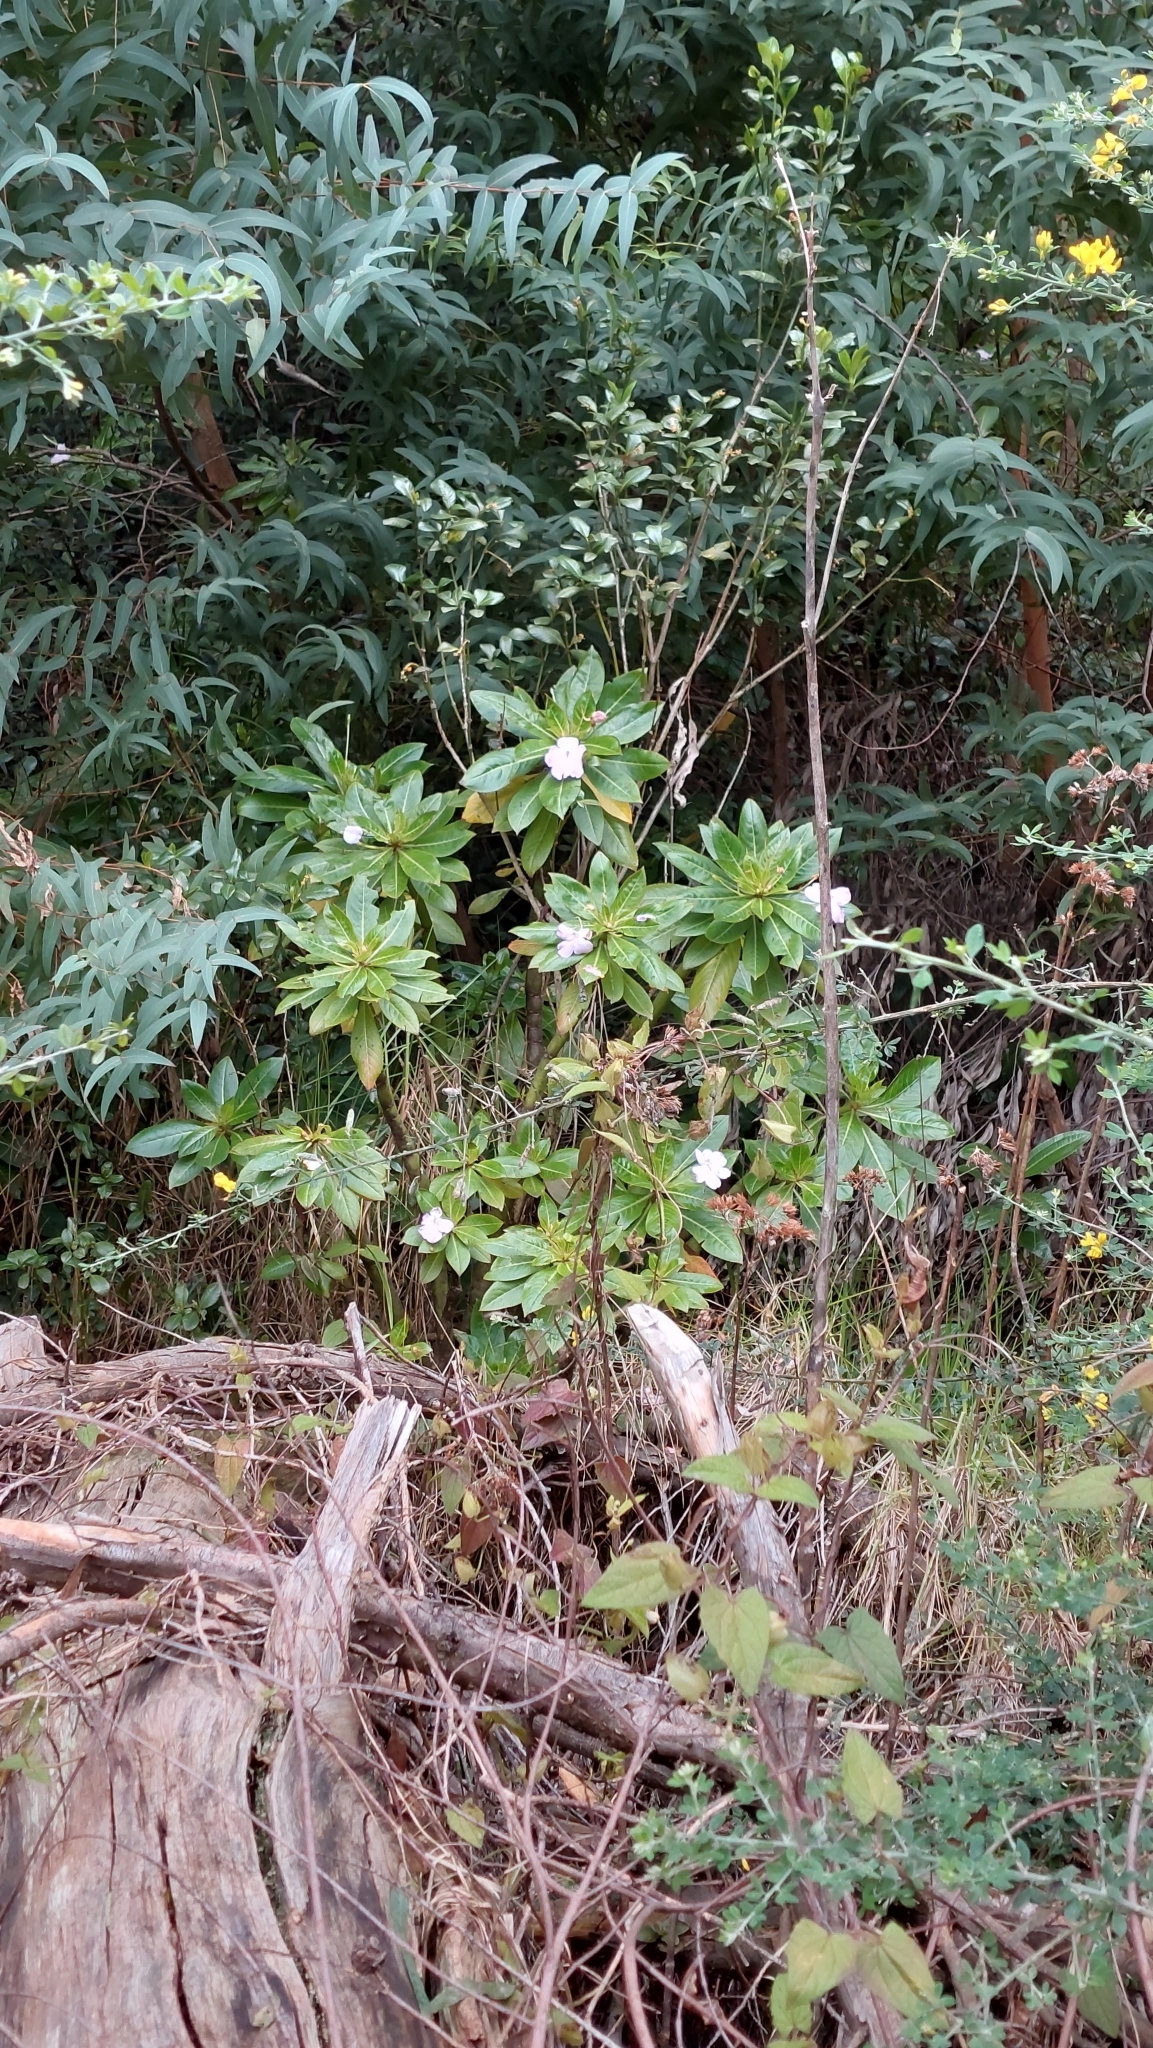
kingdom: Plantae
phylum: Tracheophyta
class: Magnoliopsida
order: Ericales
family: Balsaminaceae
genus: Impatiens
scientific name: Impatiens sodenii
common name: Oliver's touch-me-not
